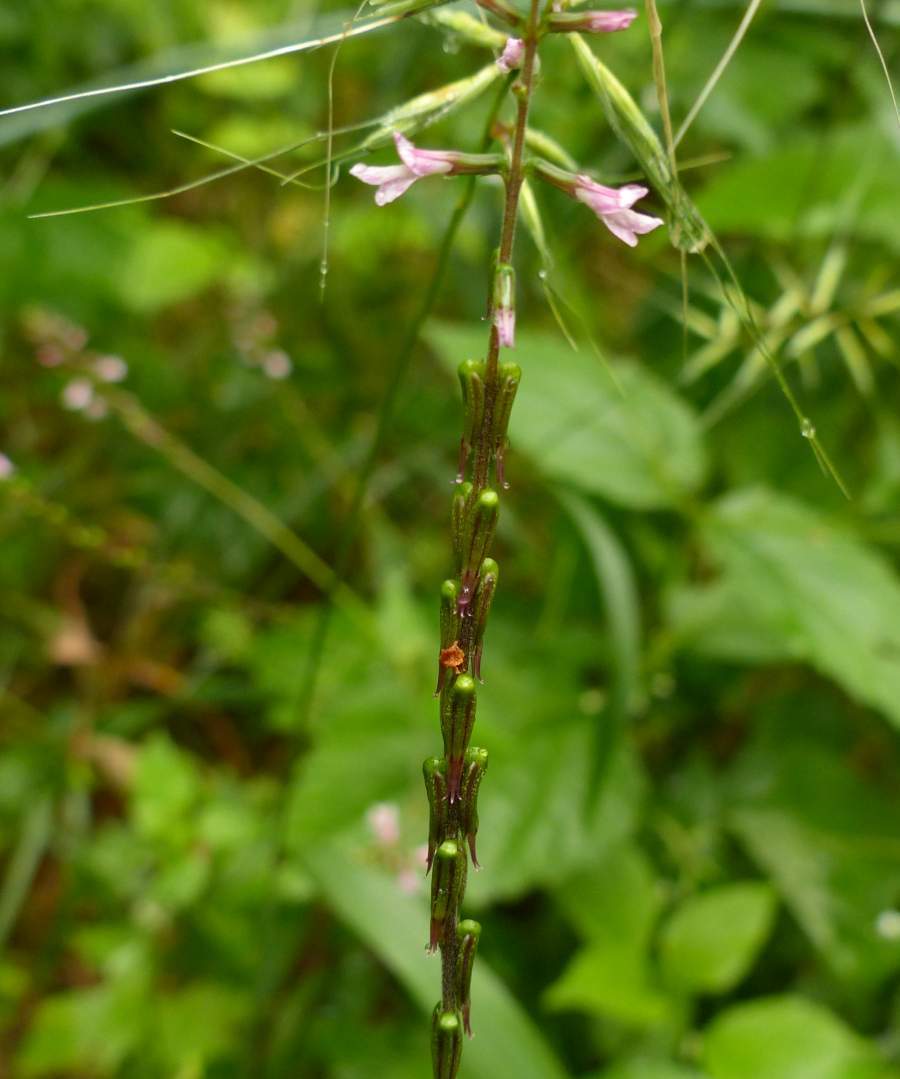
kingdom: Plantae
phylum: Tracheophyta
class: Magnoliopsida
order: Lamiales
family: Phrymaceae
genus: Phryma
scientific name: Phryma leptostachya
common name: American lopseed
